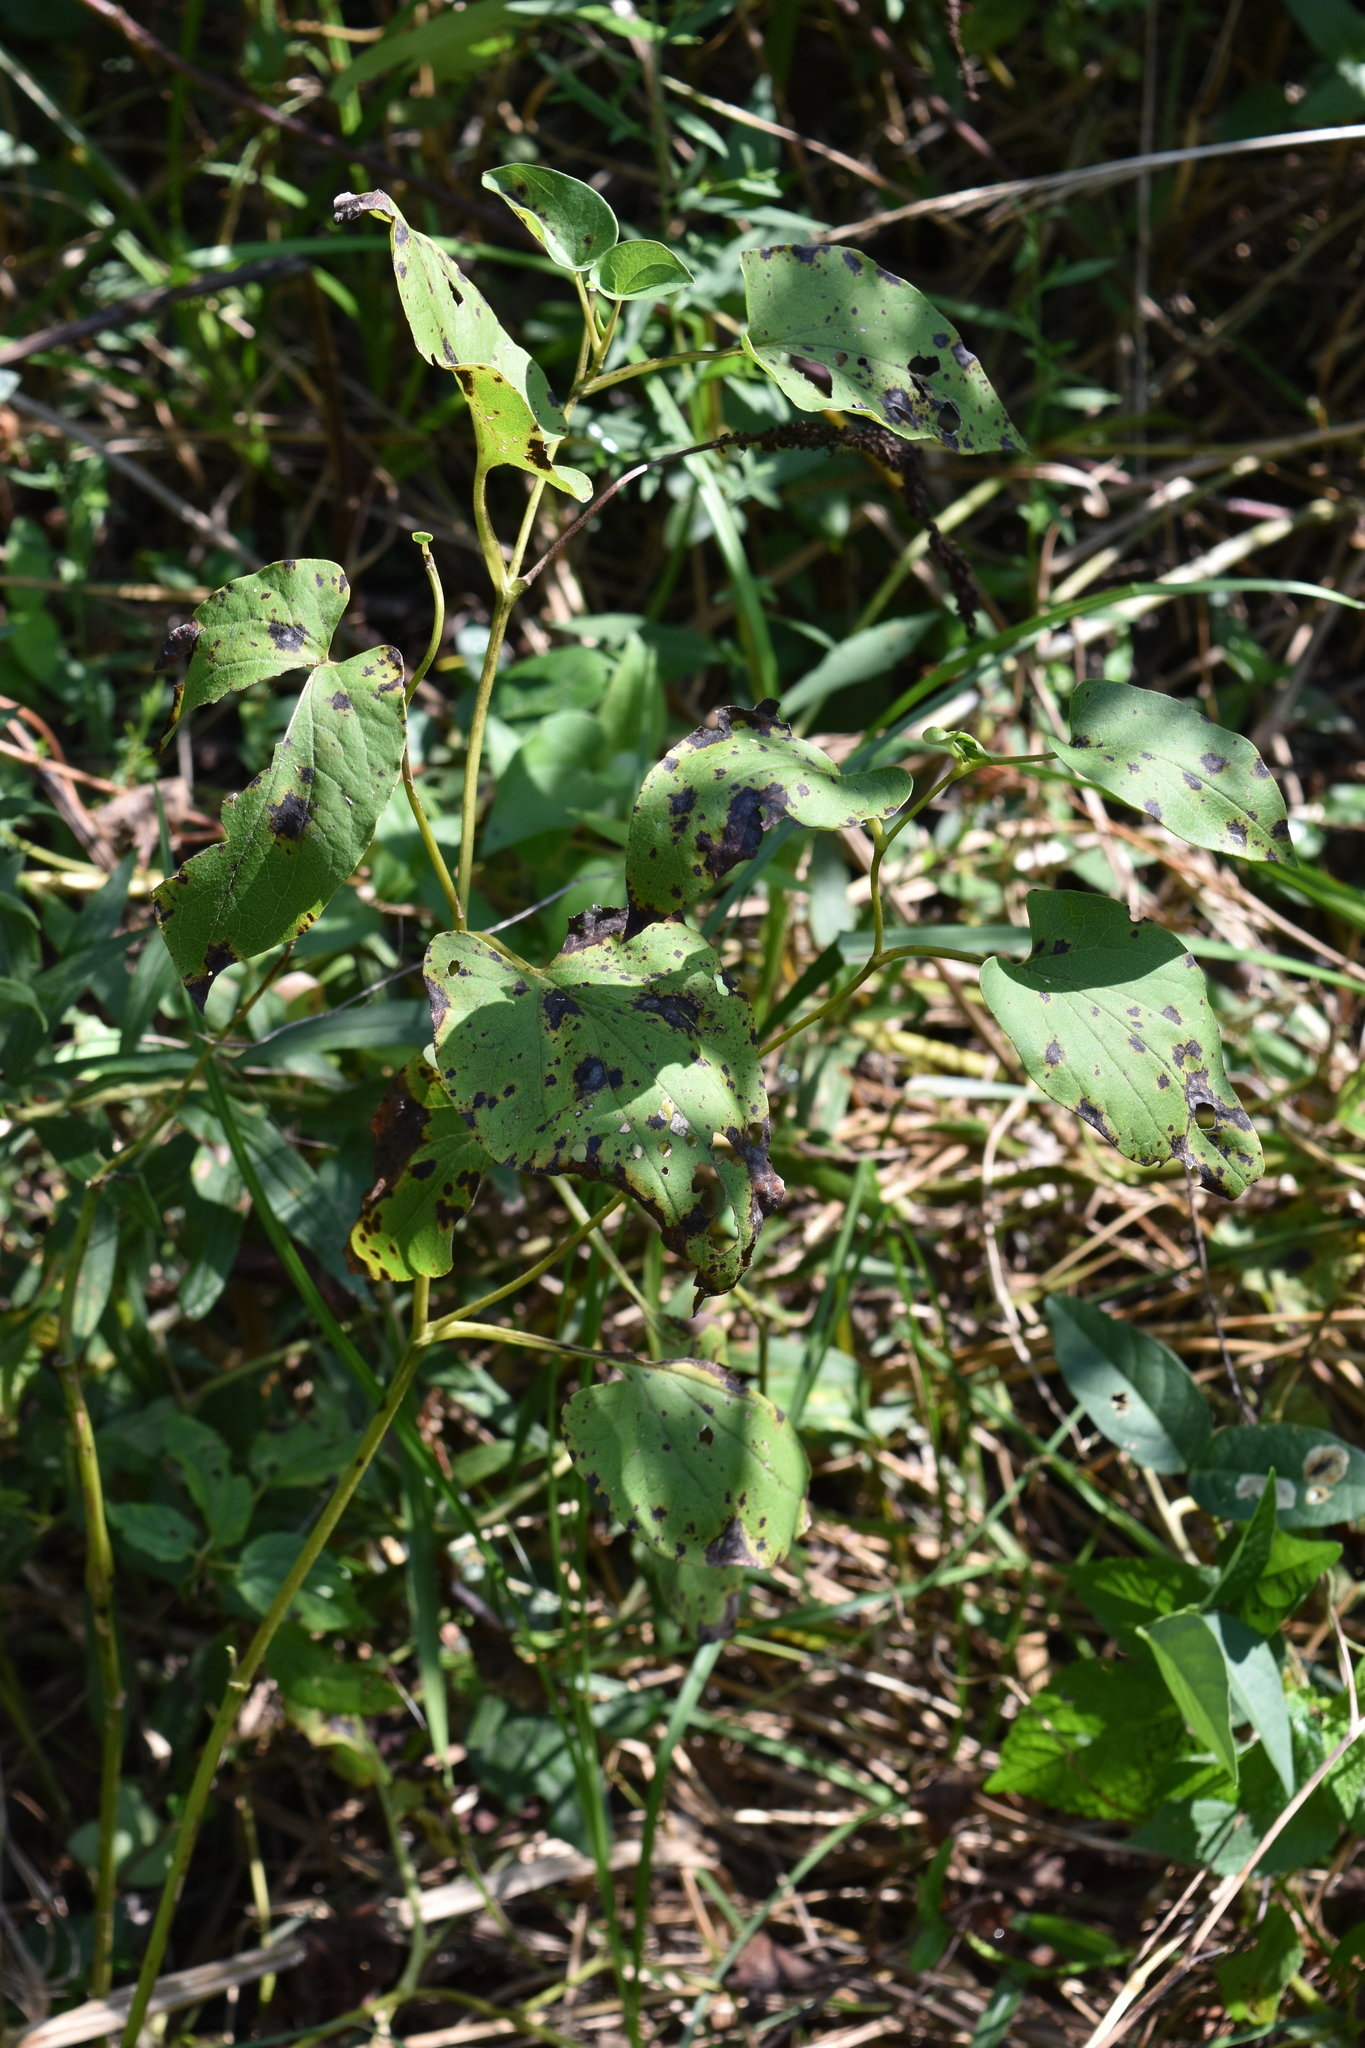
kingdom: Plantae
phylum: Tracheophyta
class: Magnoliopsida
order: Piperales
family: Saururaceae
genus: Saururus
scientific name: Saururus cernuus
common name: Lizard's-tail
